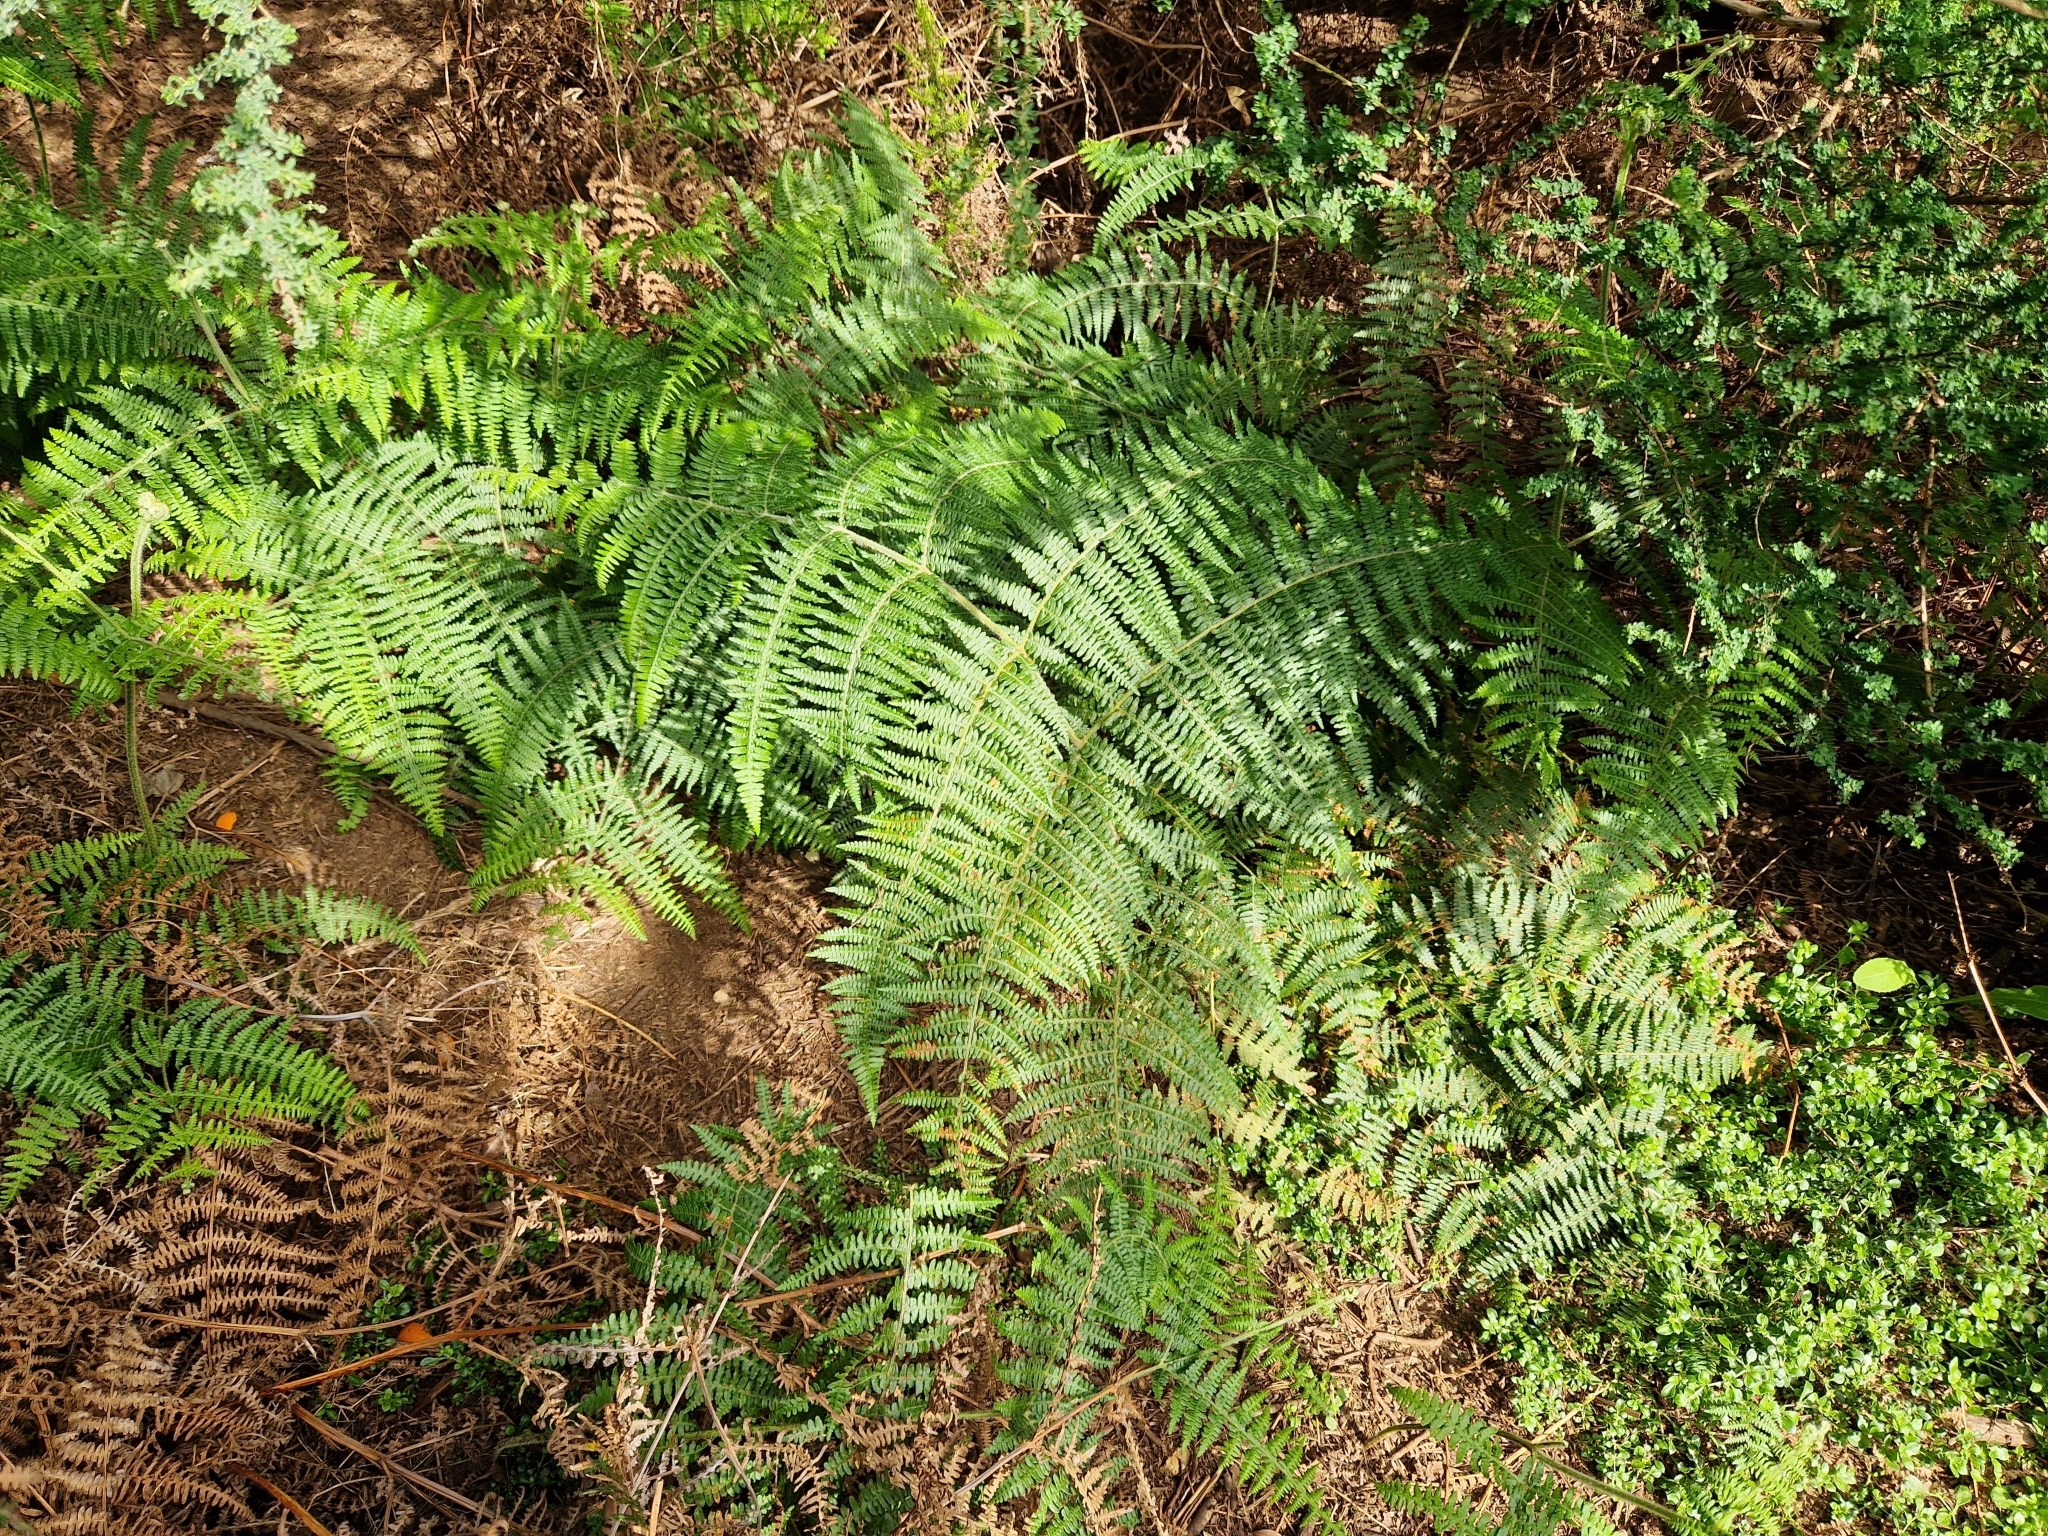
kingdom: Plantae
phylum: Tracheophyta
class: Polypodiopsida
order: Polypodiales
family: Dennstaedtiaceae
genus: Pteridium
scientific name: Pteridium aquilinum
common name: Bracken
